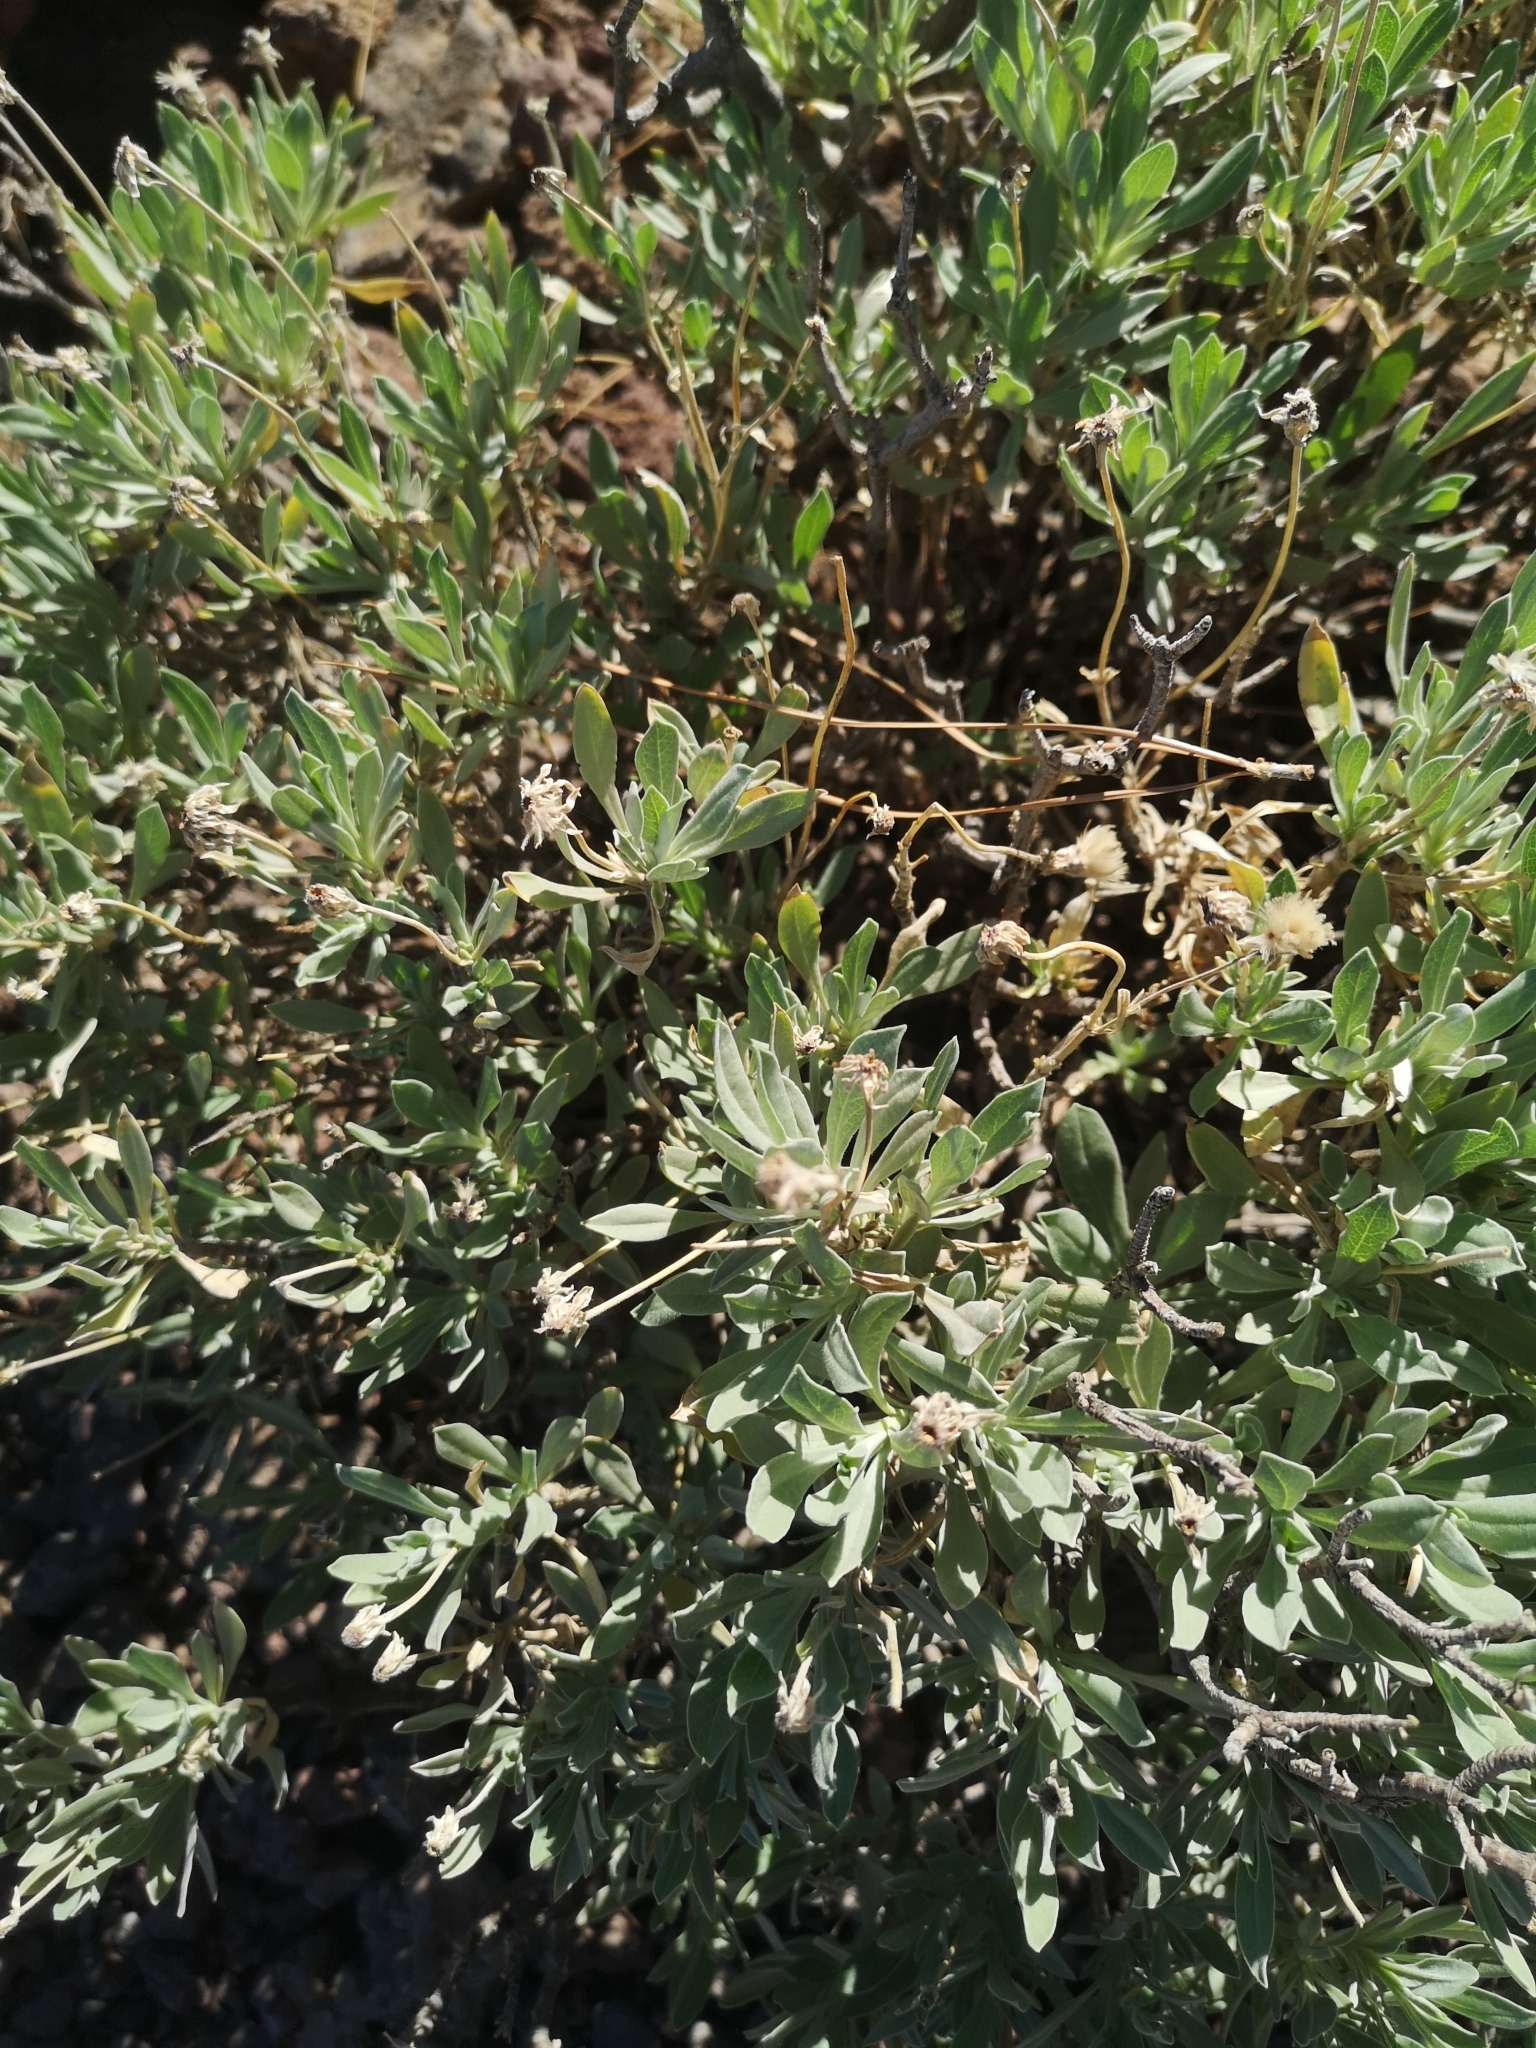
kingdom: Plantae
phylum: Tracheophyta
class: Magnoliopsida
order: Dipsacales
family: Caprifoliaceae
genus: Pterocephalus
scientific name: Pterocephalus lasiospermus
